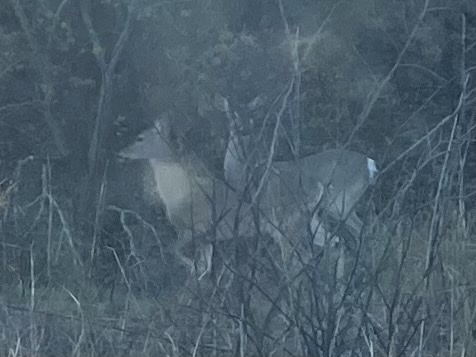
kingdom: Animalia
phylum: Chordata
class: Mammalia
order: Artiodactyla
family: Cervidae
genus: Odocoileus
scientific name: Odocoileus virginianus
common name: White-tailed deer
